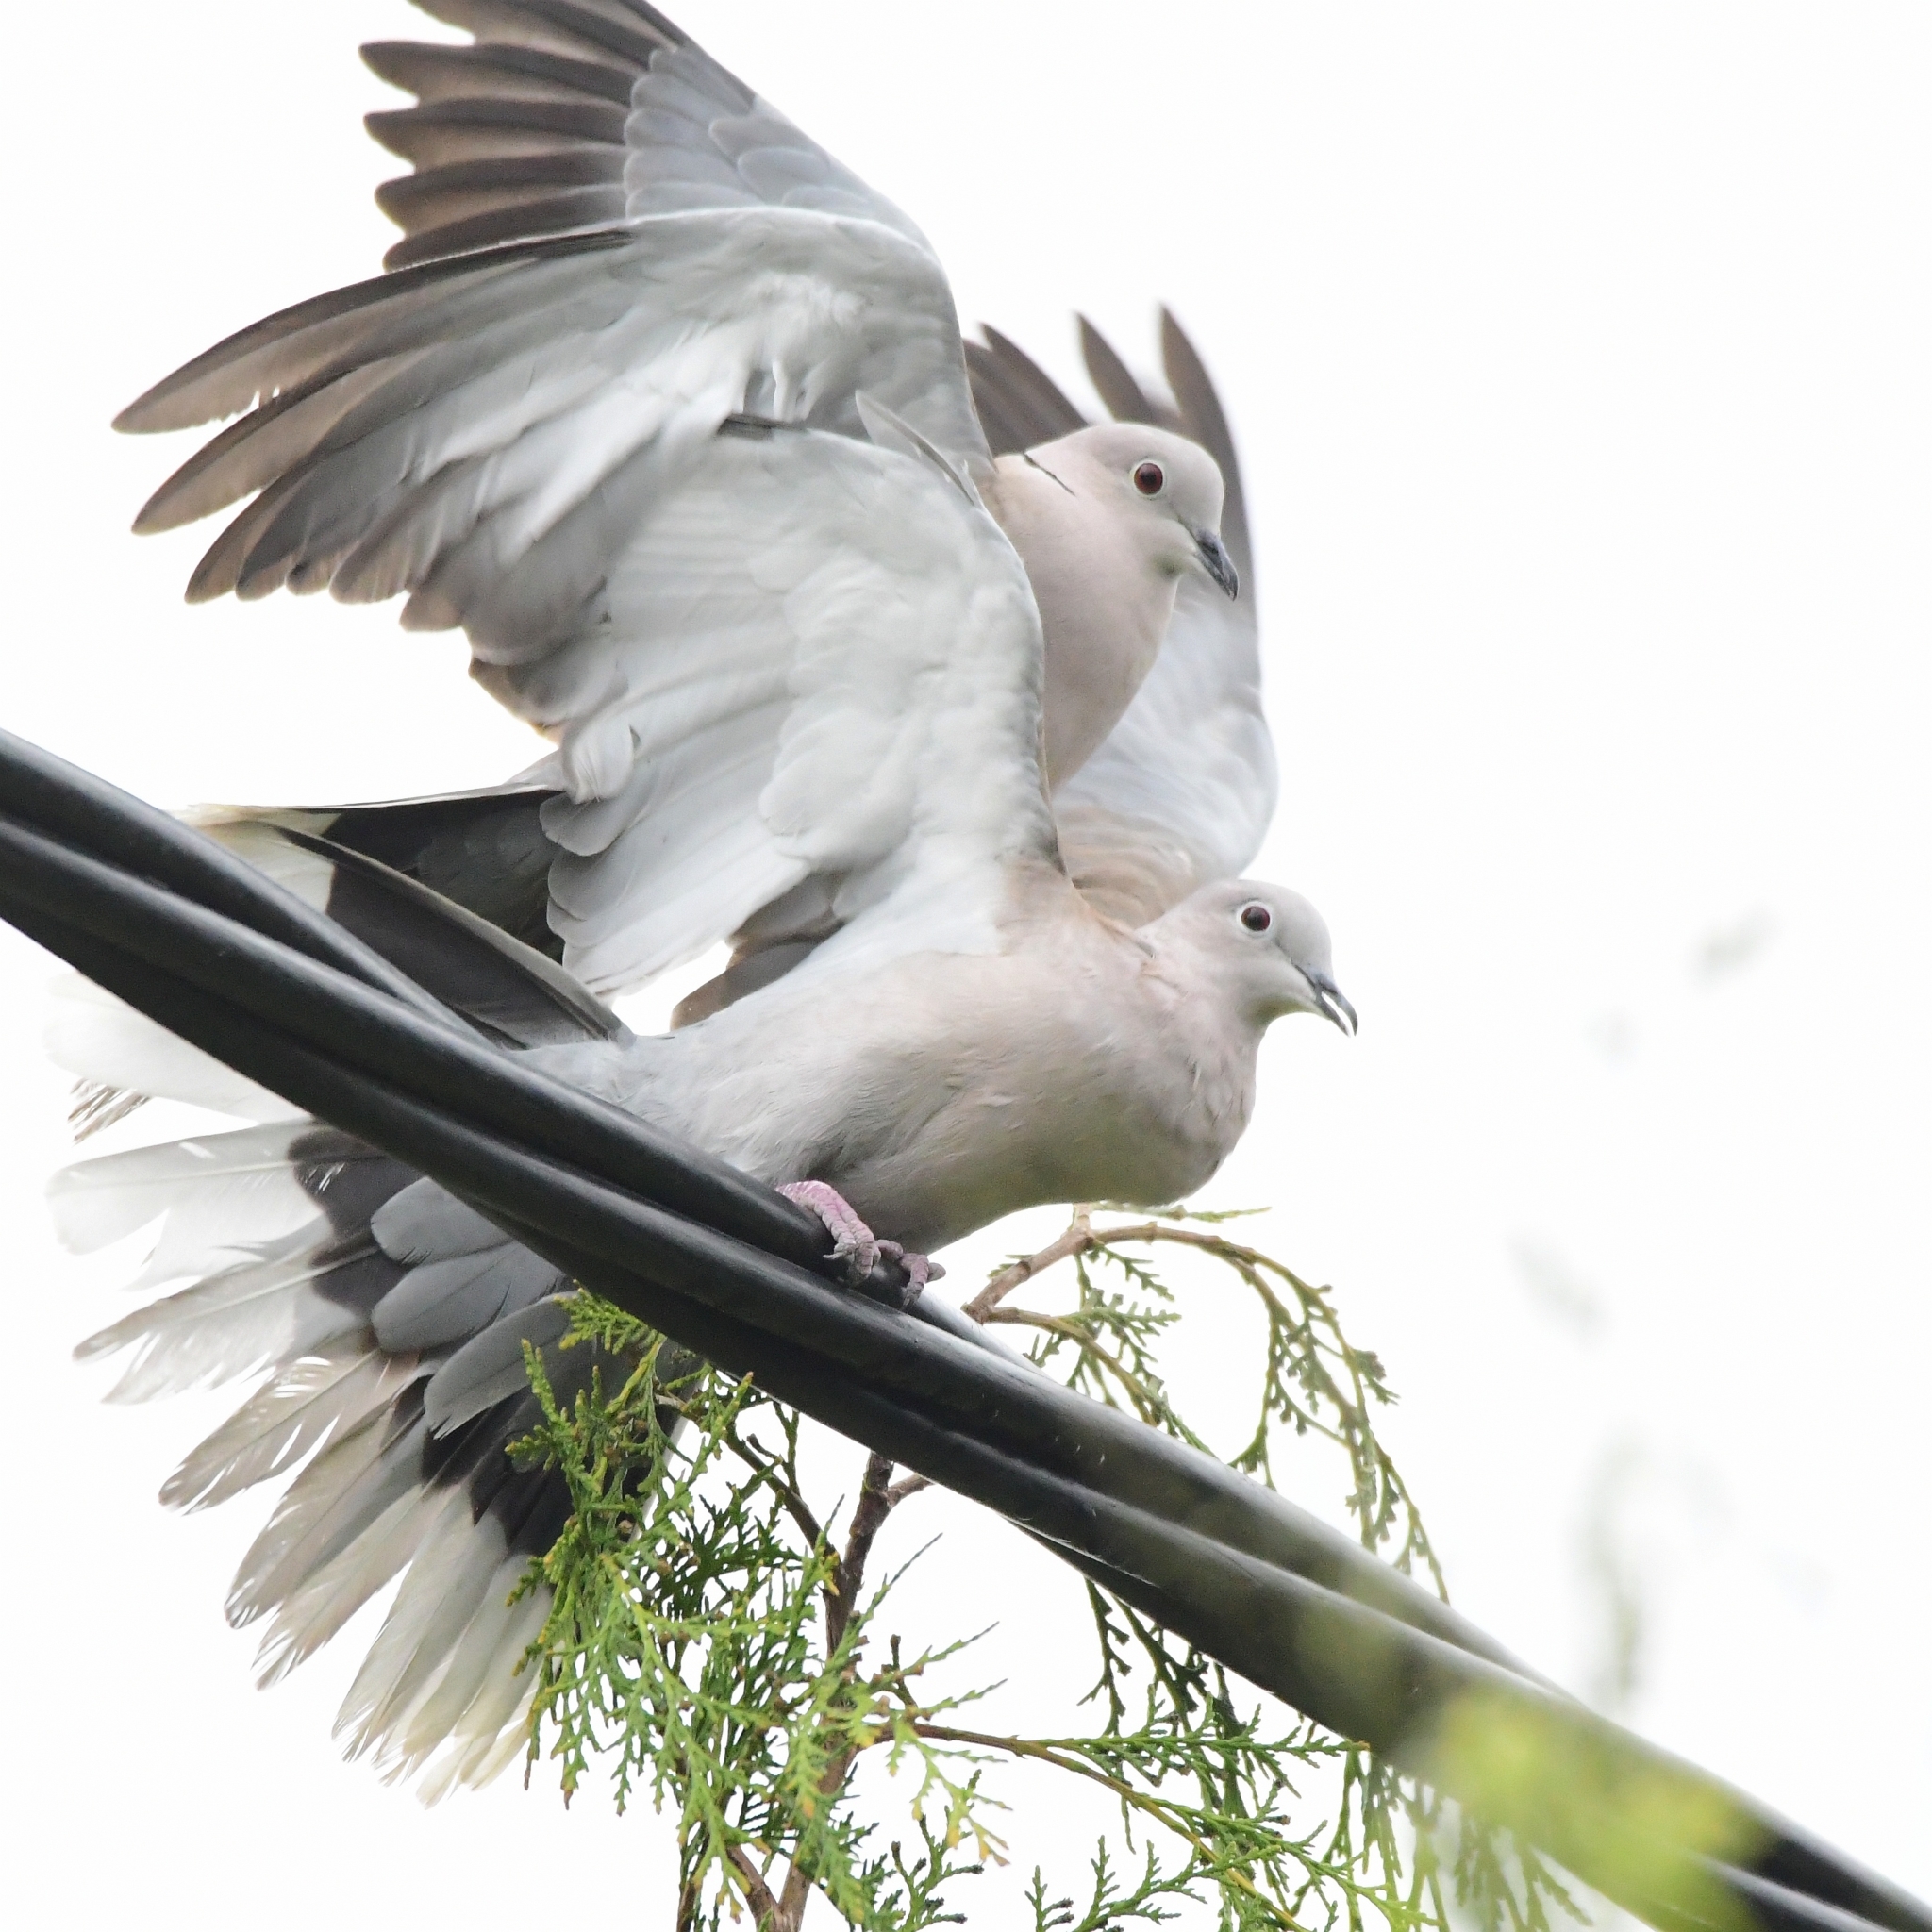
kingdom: Animalia
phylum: Chordata
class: Aves
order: Columbiformes
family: Columbidae
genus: Streptopelia
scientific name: Streptopelia decaocto
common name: Eurasian collared dove
